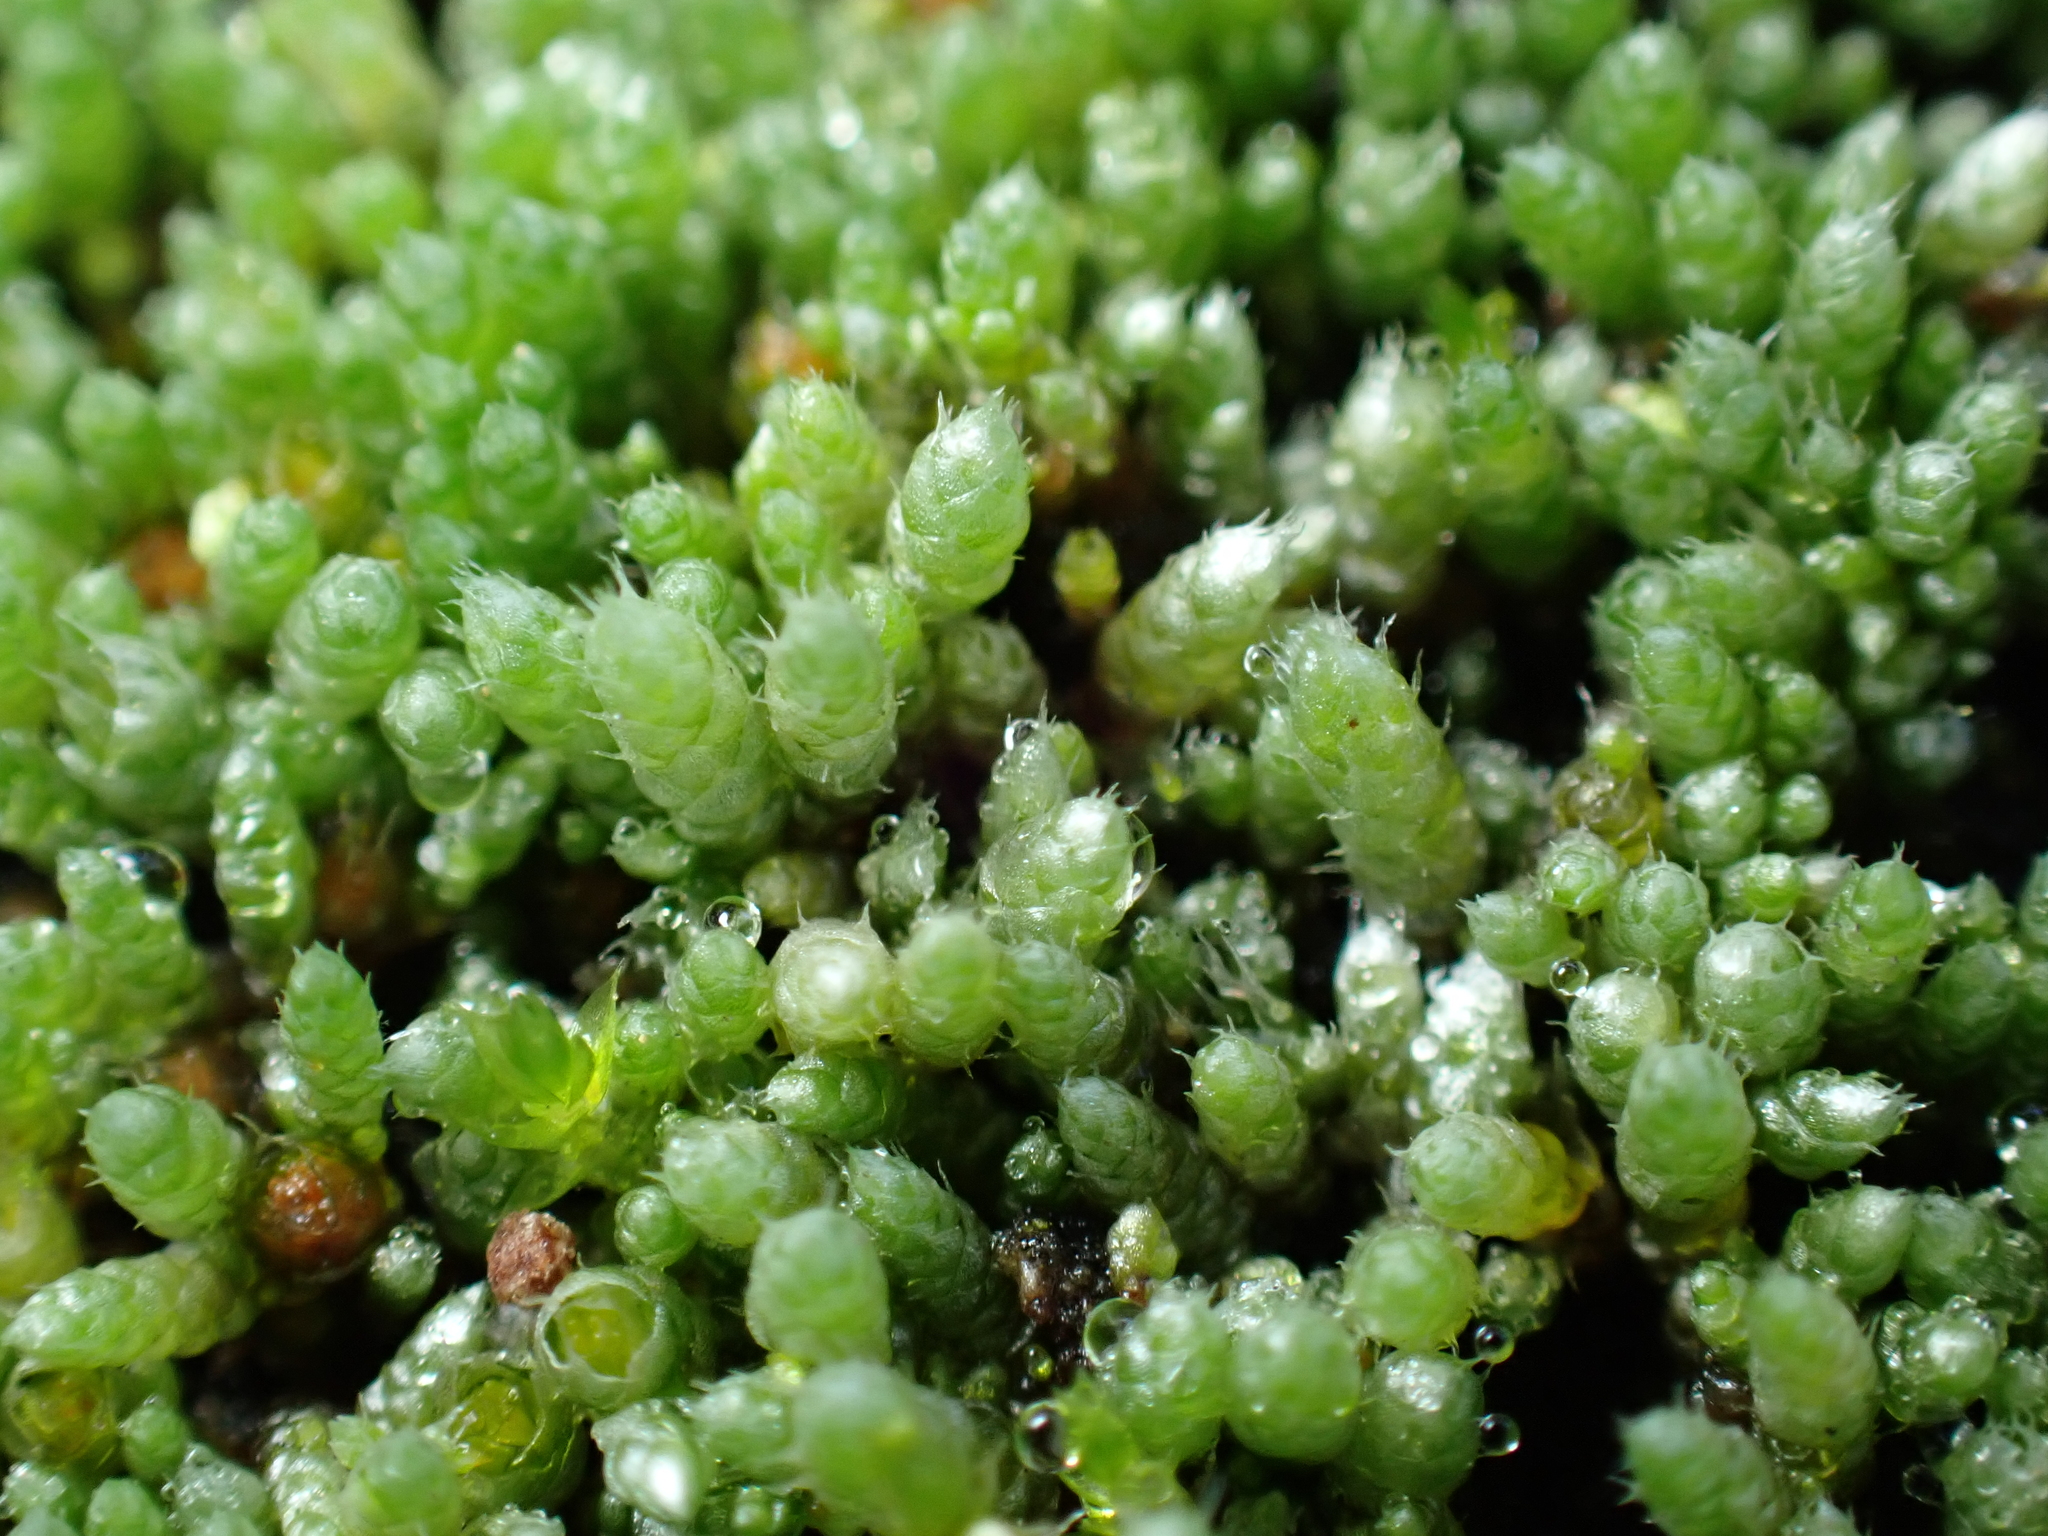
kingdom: Plantae
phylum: Bryophyta
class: Bryopsida
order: Bryales
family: Bryaceae
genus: Bryum
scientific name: Bryum argenteum
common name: Silver-moss
